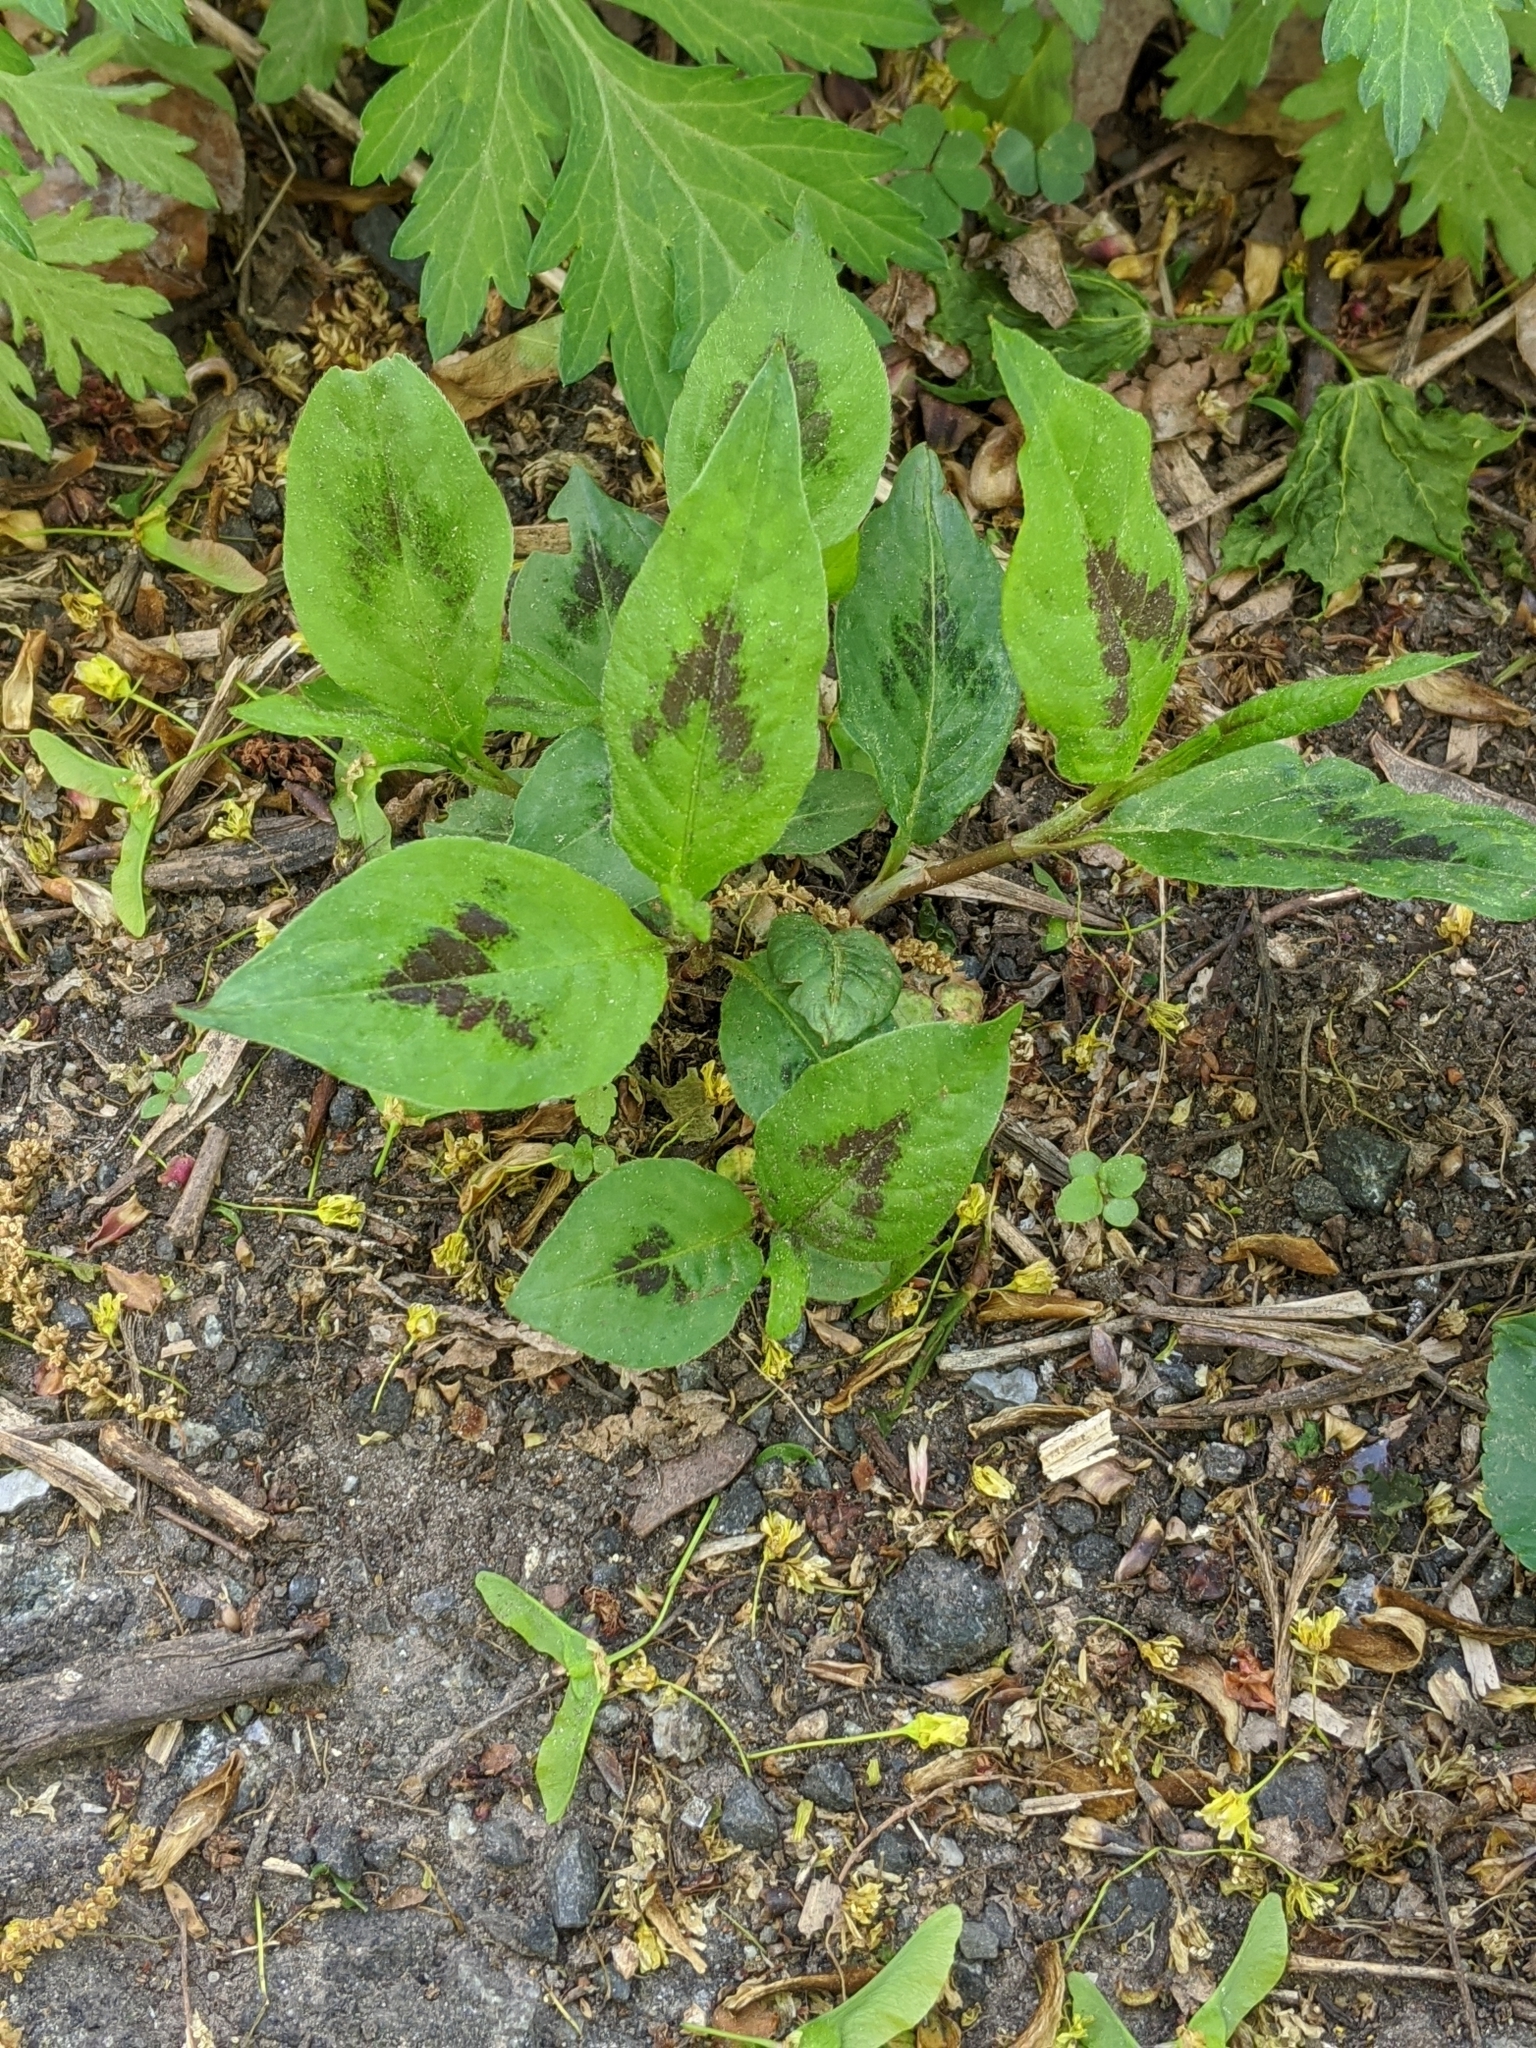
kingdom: Plantae
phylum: Tracheophyta
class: Magnoliopsida
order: Caryophyllales
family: Polygonaceae
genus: Persicaria
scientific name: Persicaria virginiana
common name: Jumpseed
